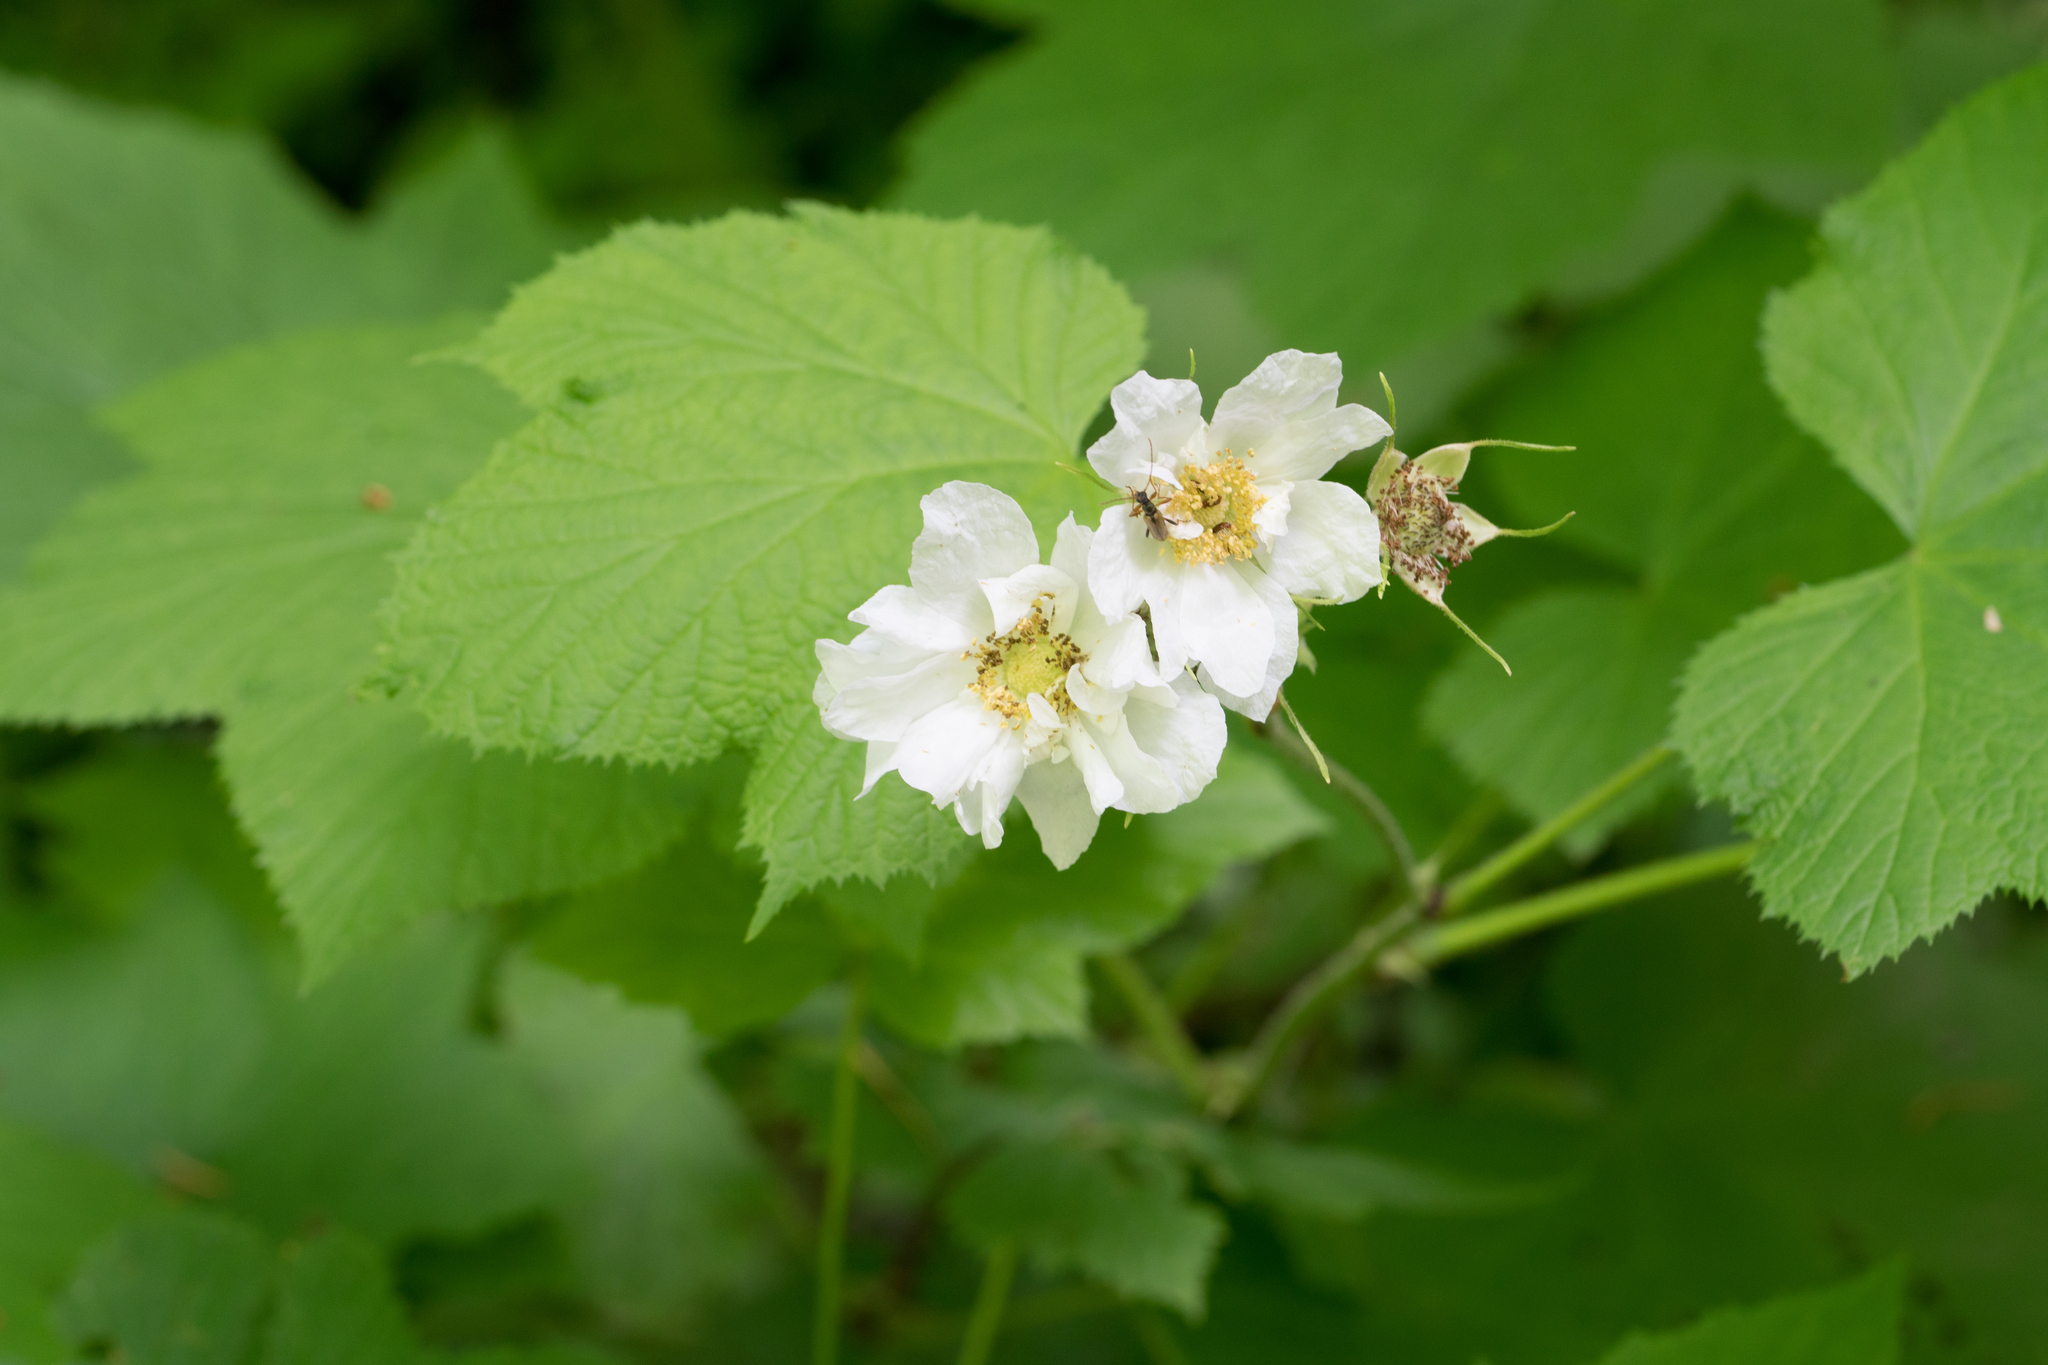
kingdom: Plantae
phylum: Tracheophyta
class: Magnoliopsida
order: Rosales
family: Rosaceae
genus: Rubus
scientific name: Rubus parviflorus
